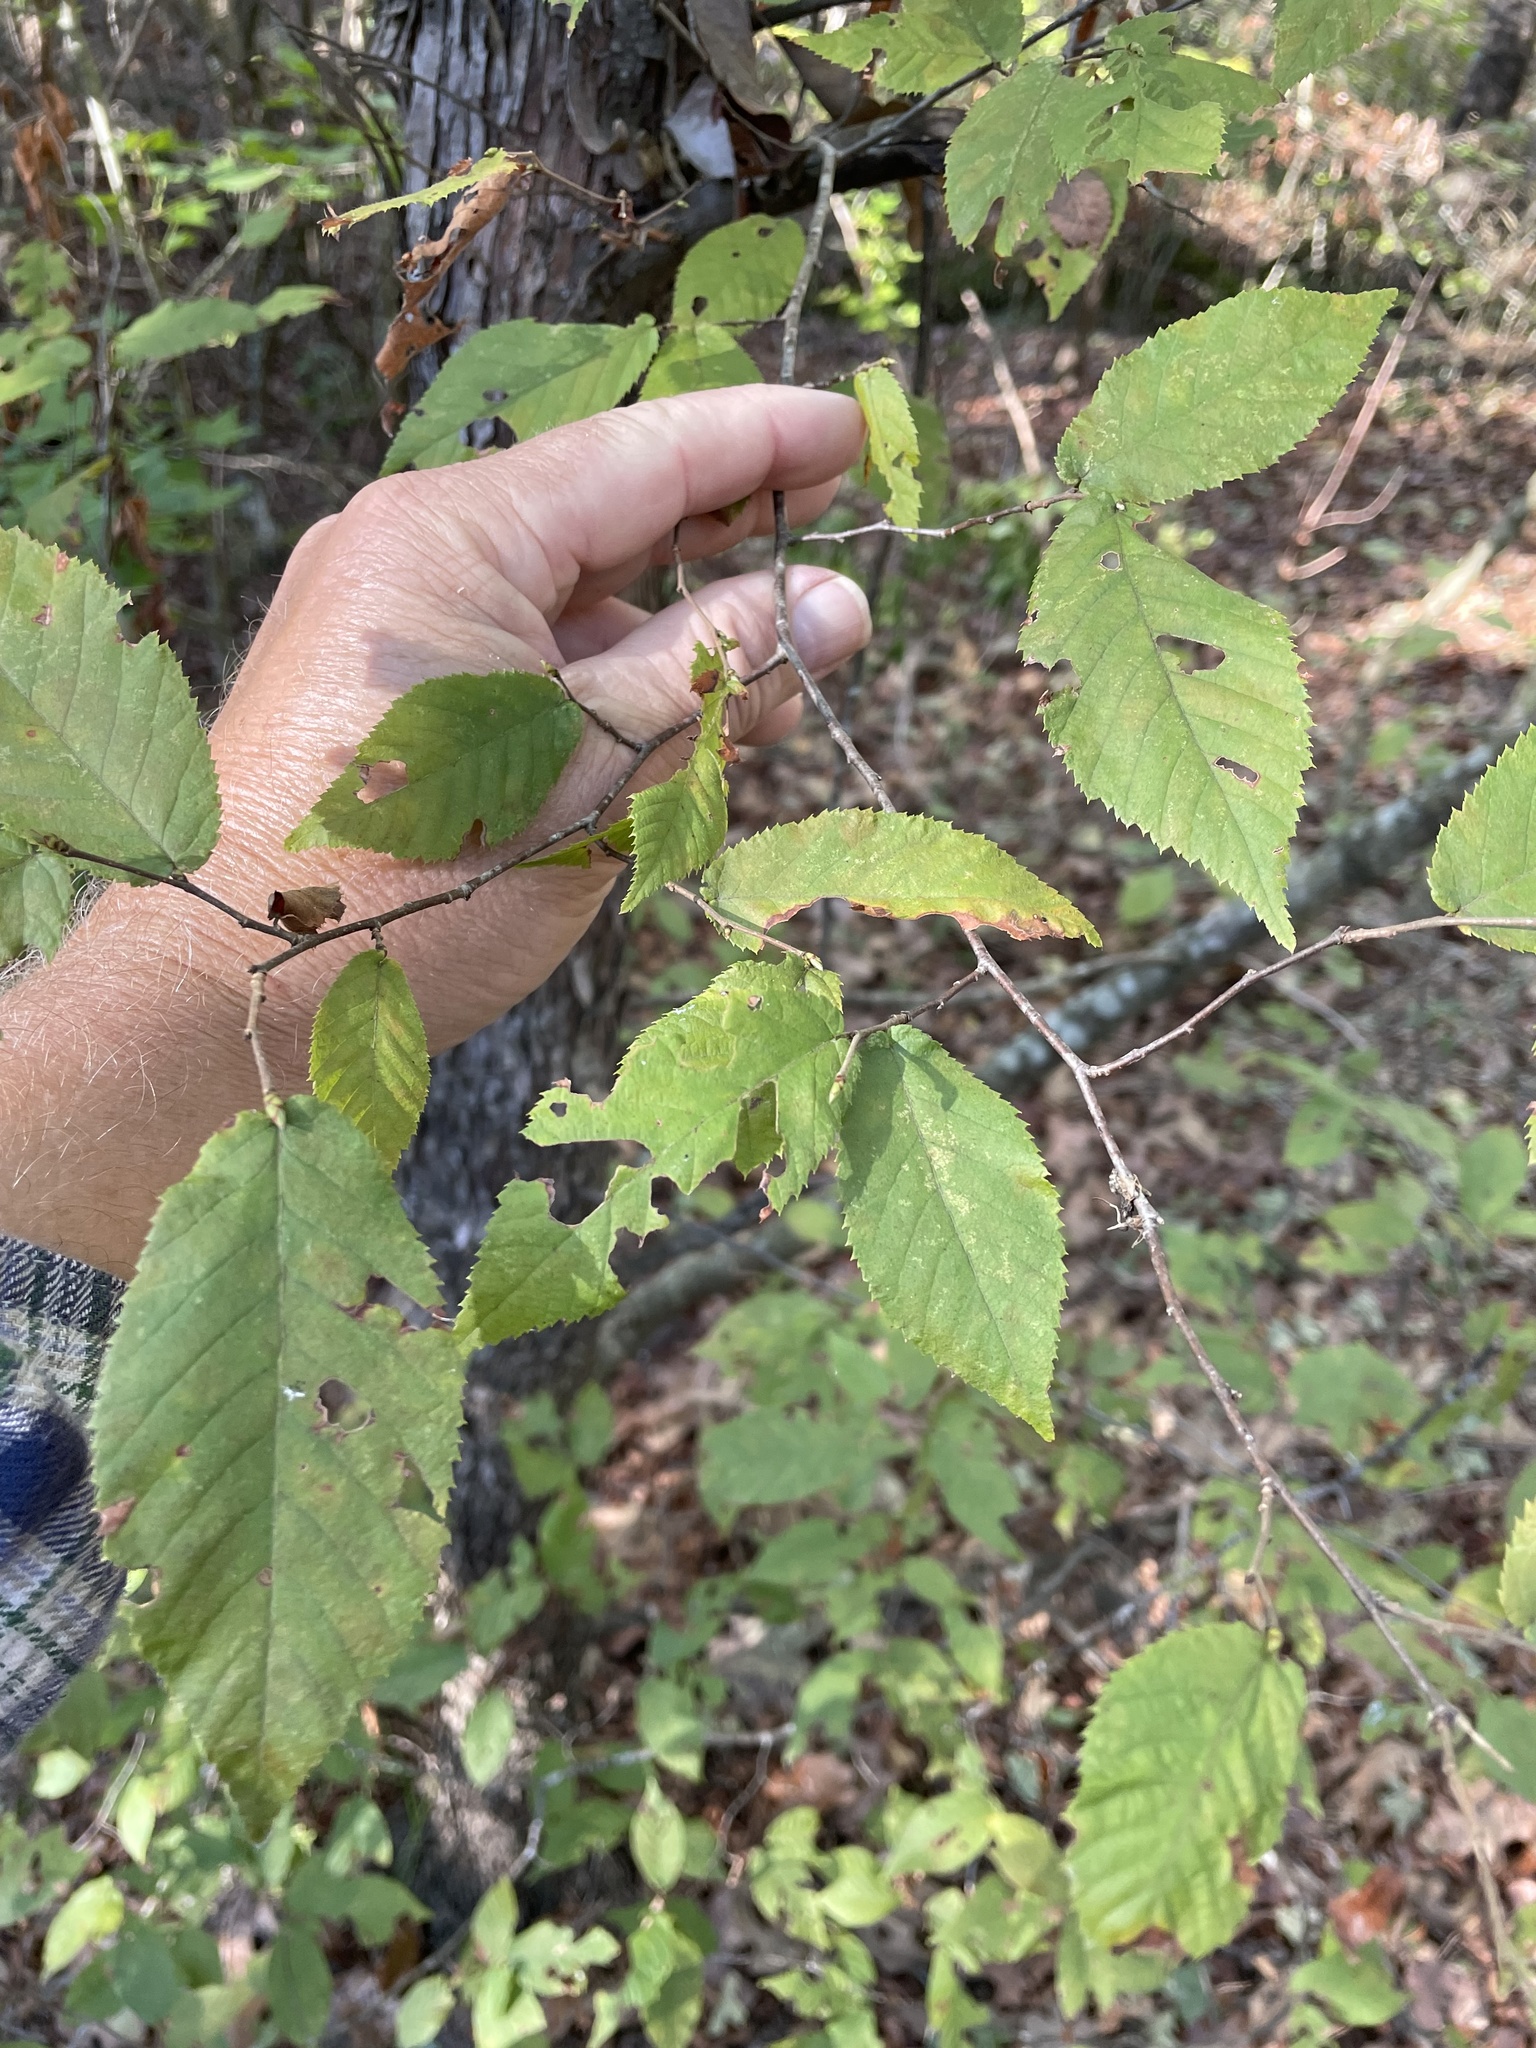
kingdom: Plantae
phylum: Tracheophyta
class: Magnoliopsida
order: Fagales
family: Betulaceae
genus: Ostrya
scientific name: Ostrya virginiana
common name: Ironwood
